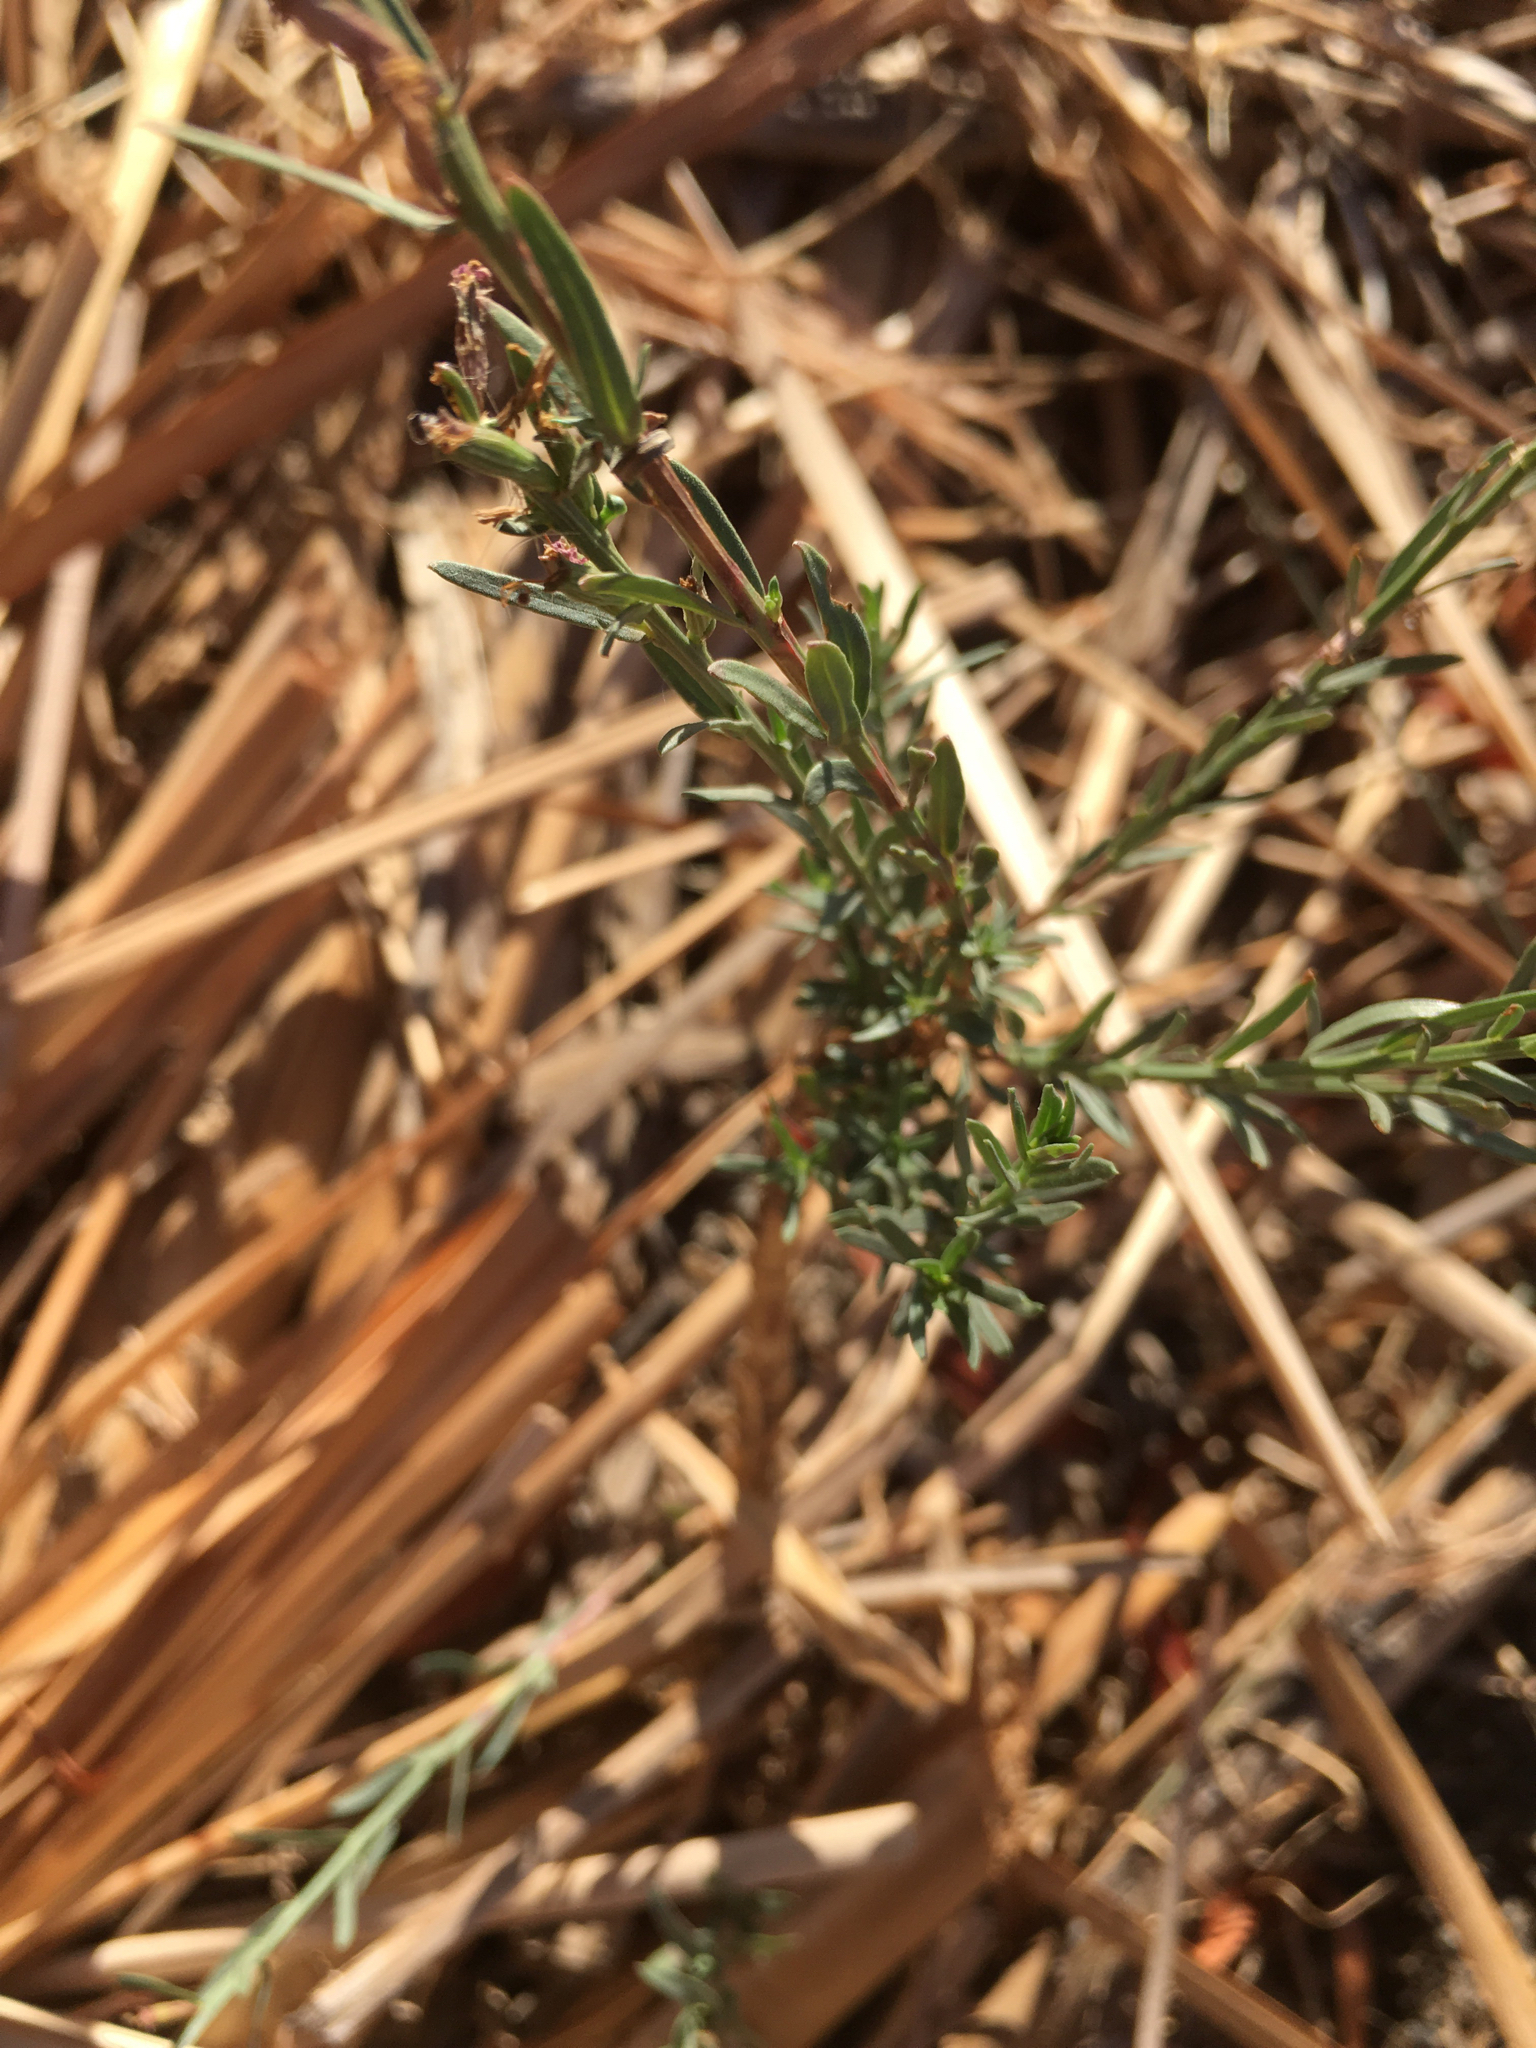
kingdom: Plantae
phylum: Tracheophyta
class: Magnoliopsida
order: Myrtales
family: Lythraceae
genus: Lythrum
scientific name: Lythrum californicum
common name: California loosestrife
